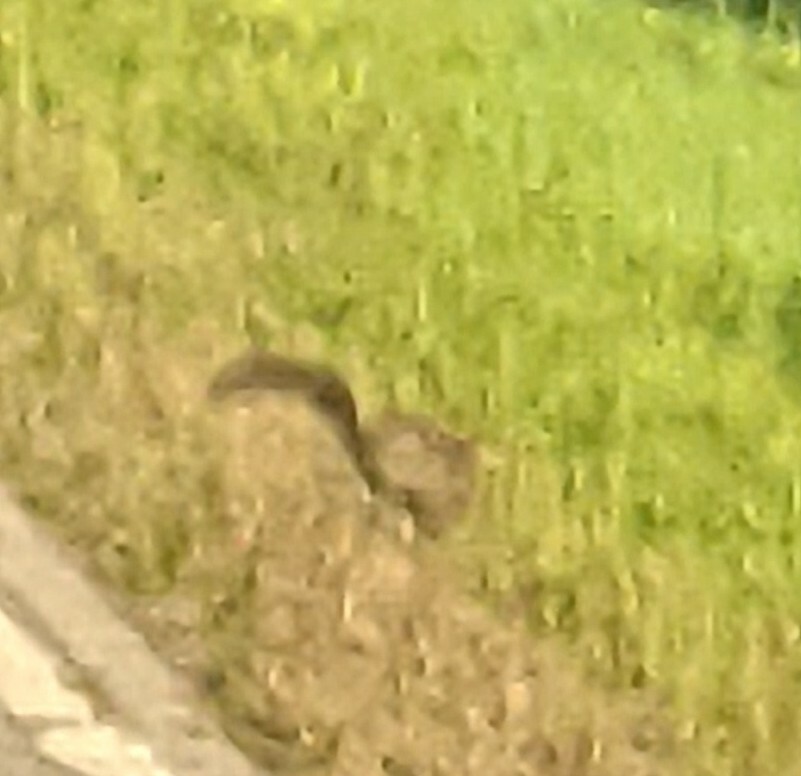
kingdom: Animalia
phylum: Chordata
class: Mammalia
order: Rodentia
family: Sciuridae
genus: Sciurus
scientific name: Sciurus carolinensis
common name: Eastern gray squirrel
